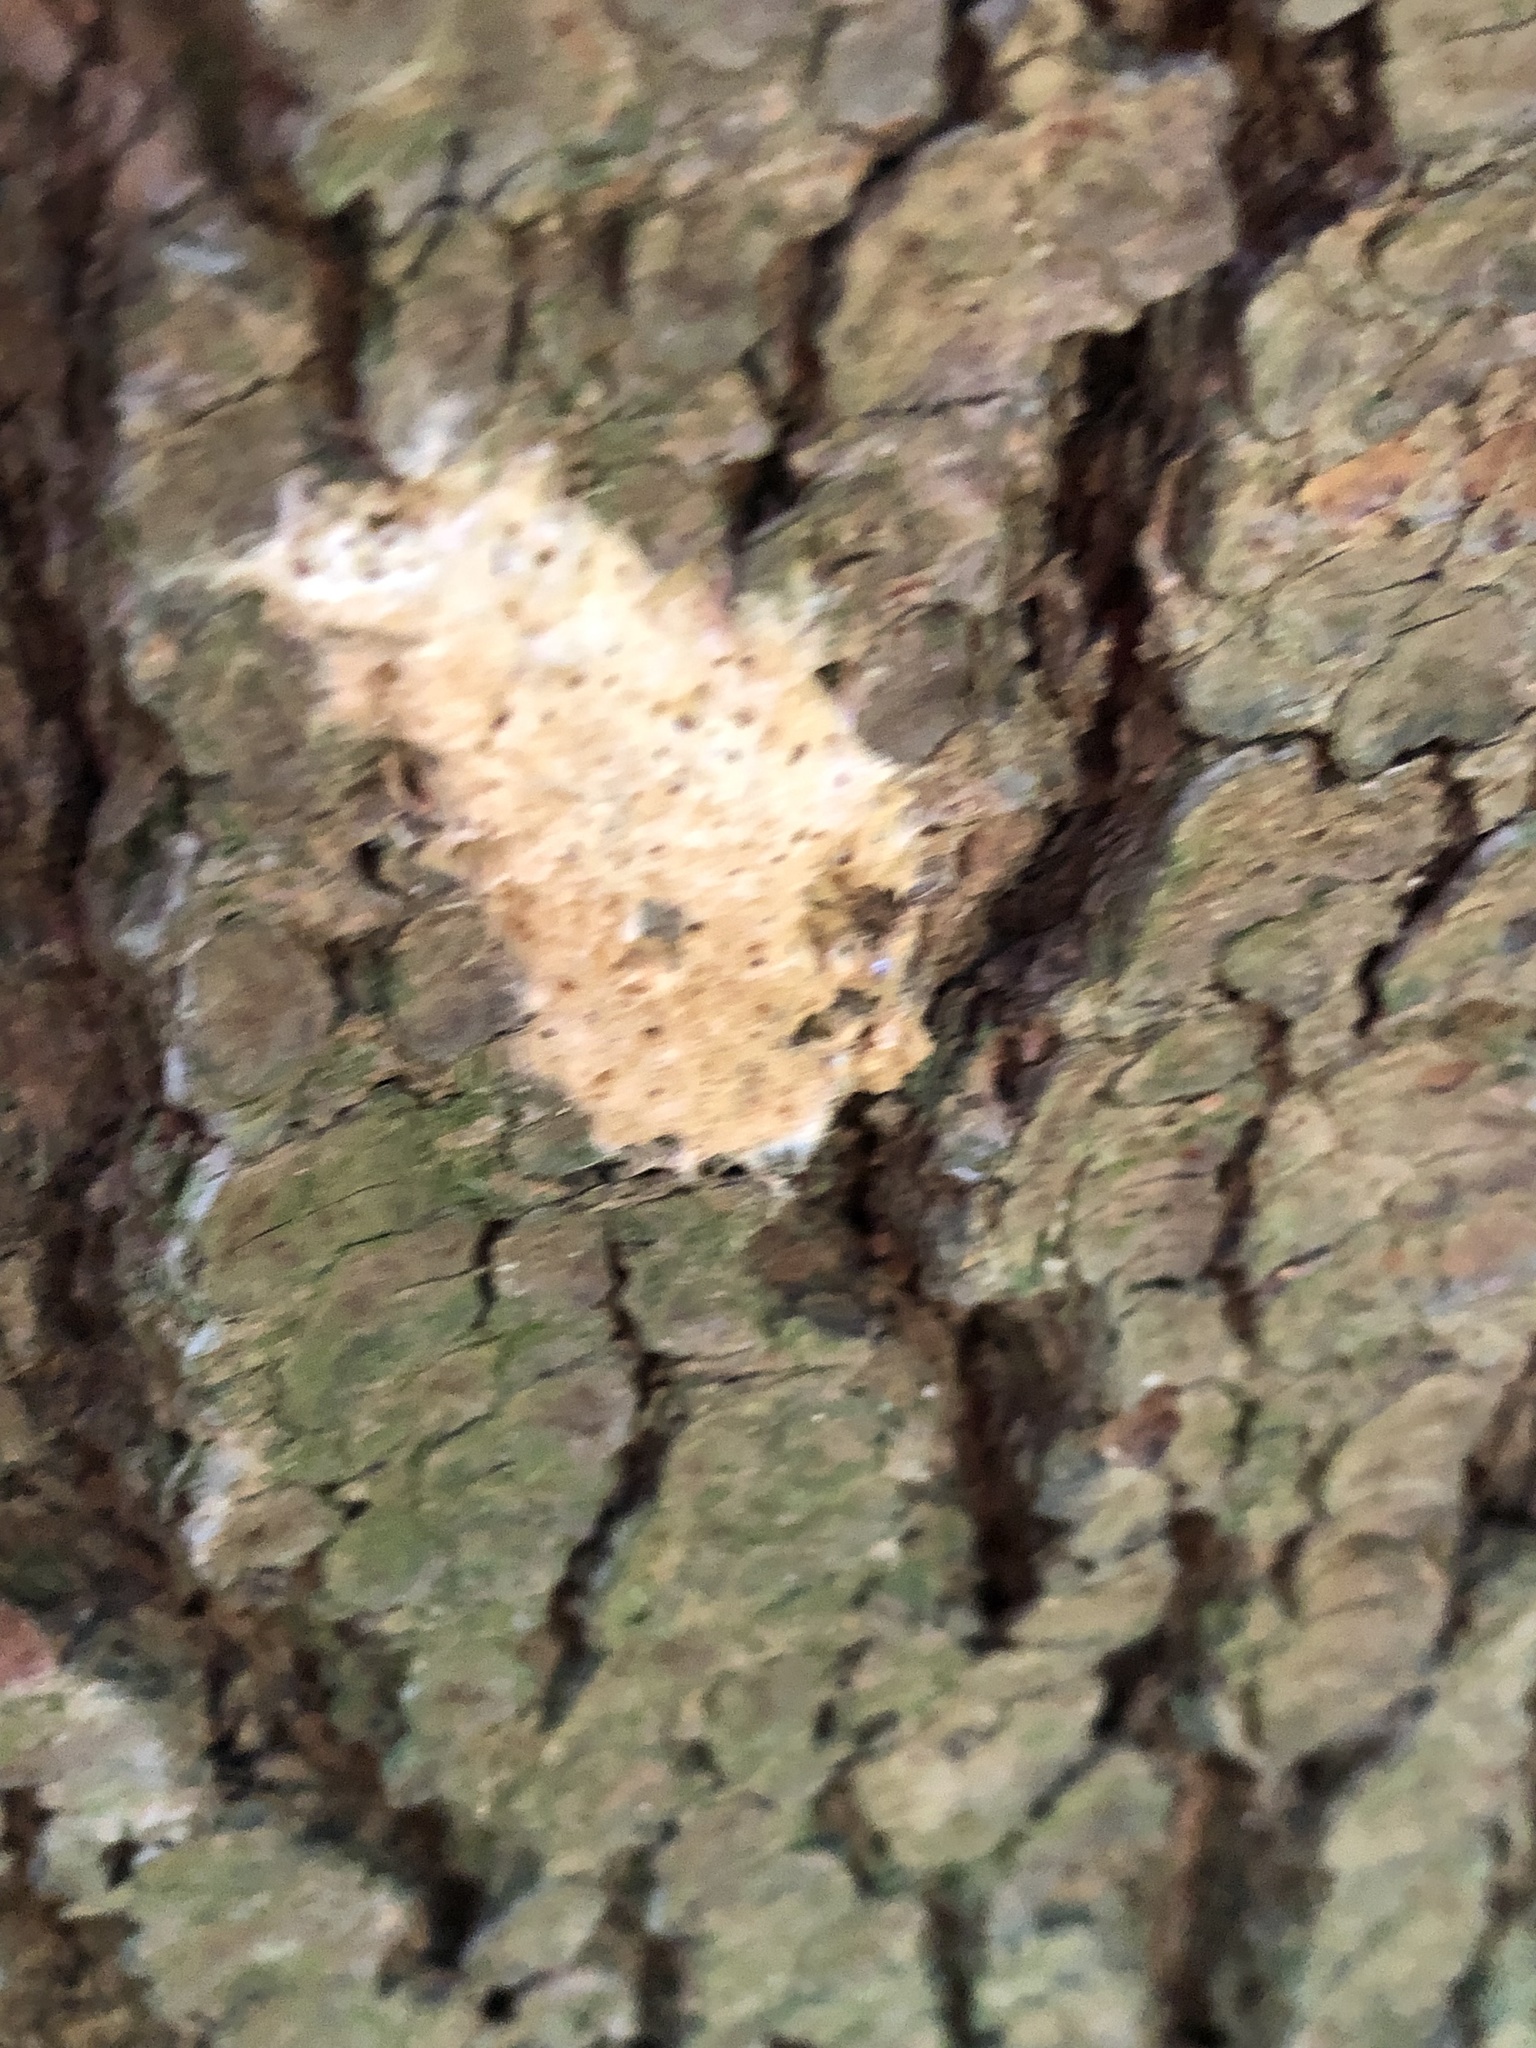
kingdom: Animalia
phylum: Arthropoda
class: Insecta
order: Lepidoptera
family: Erebidae
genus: Lymantria
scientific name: Lymantria dispar
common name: Gypsy moth
